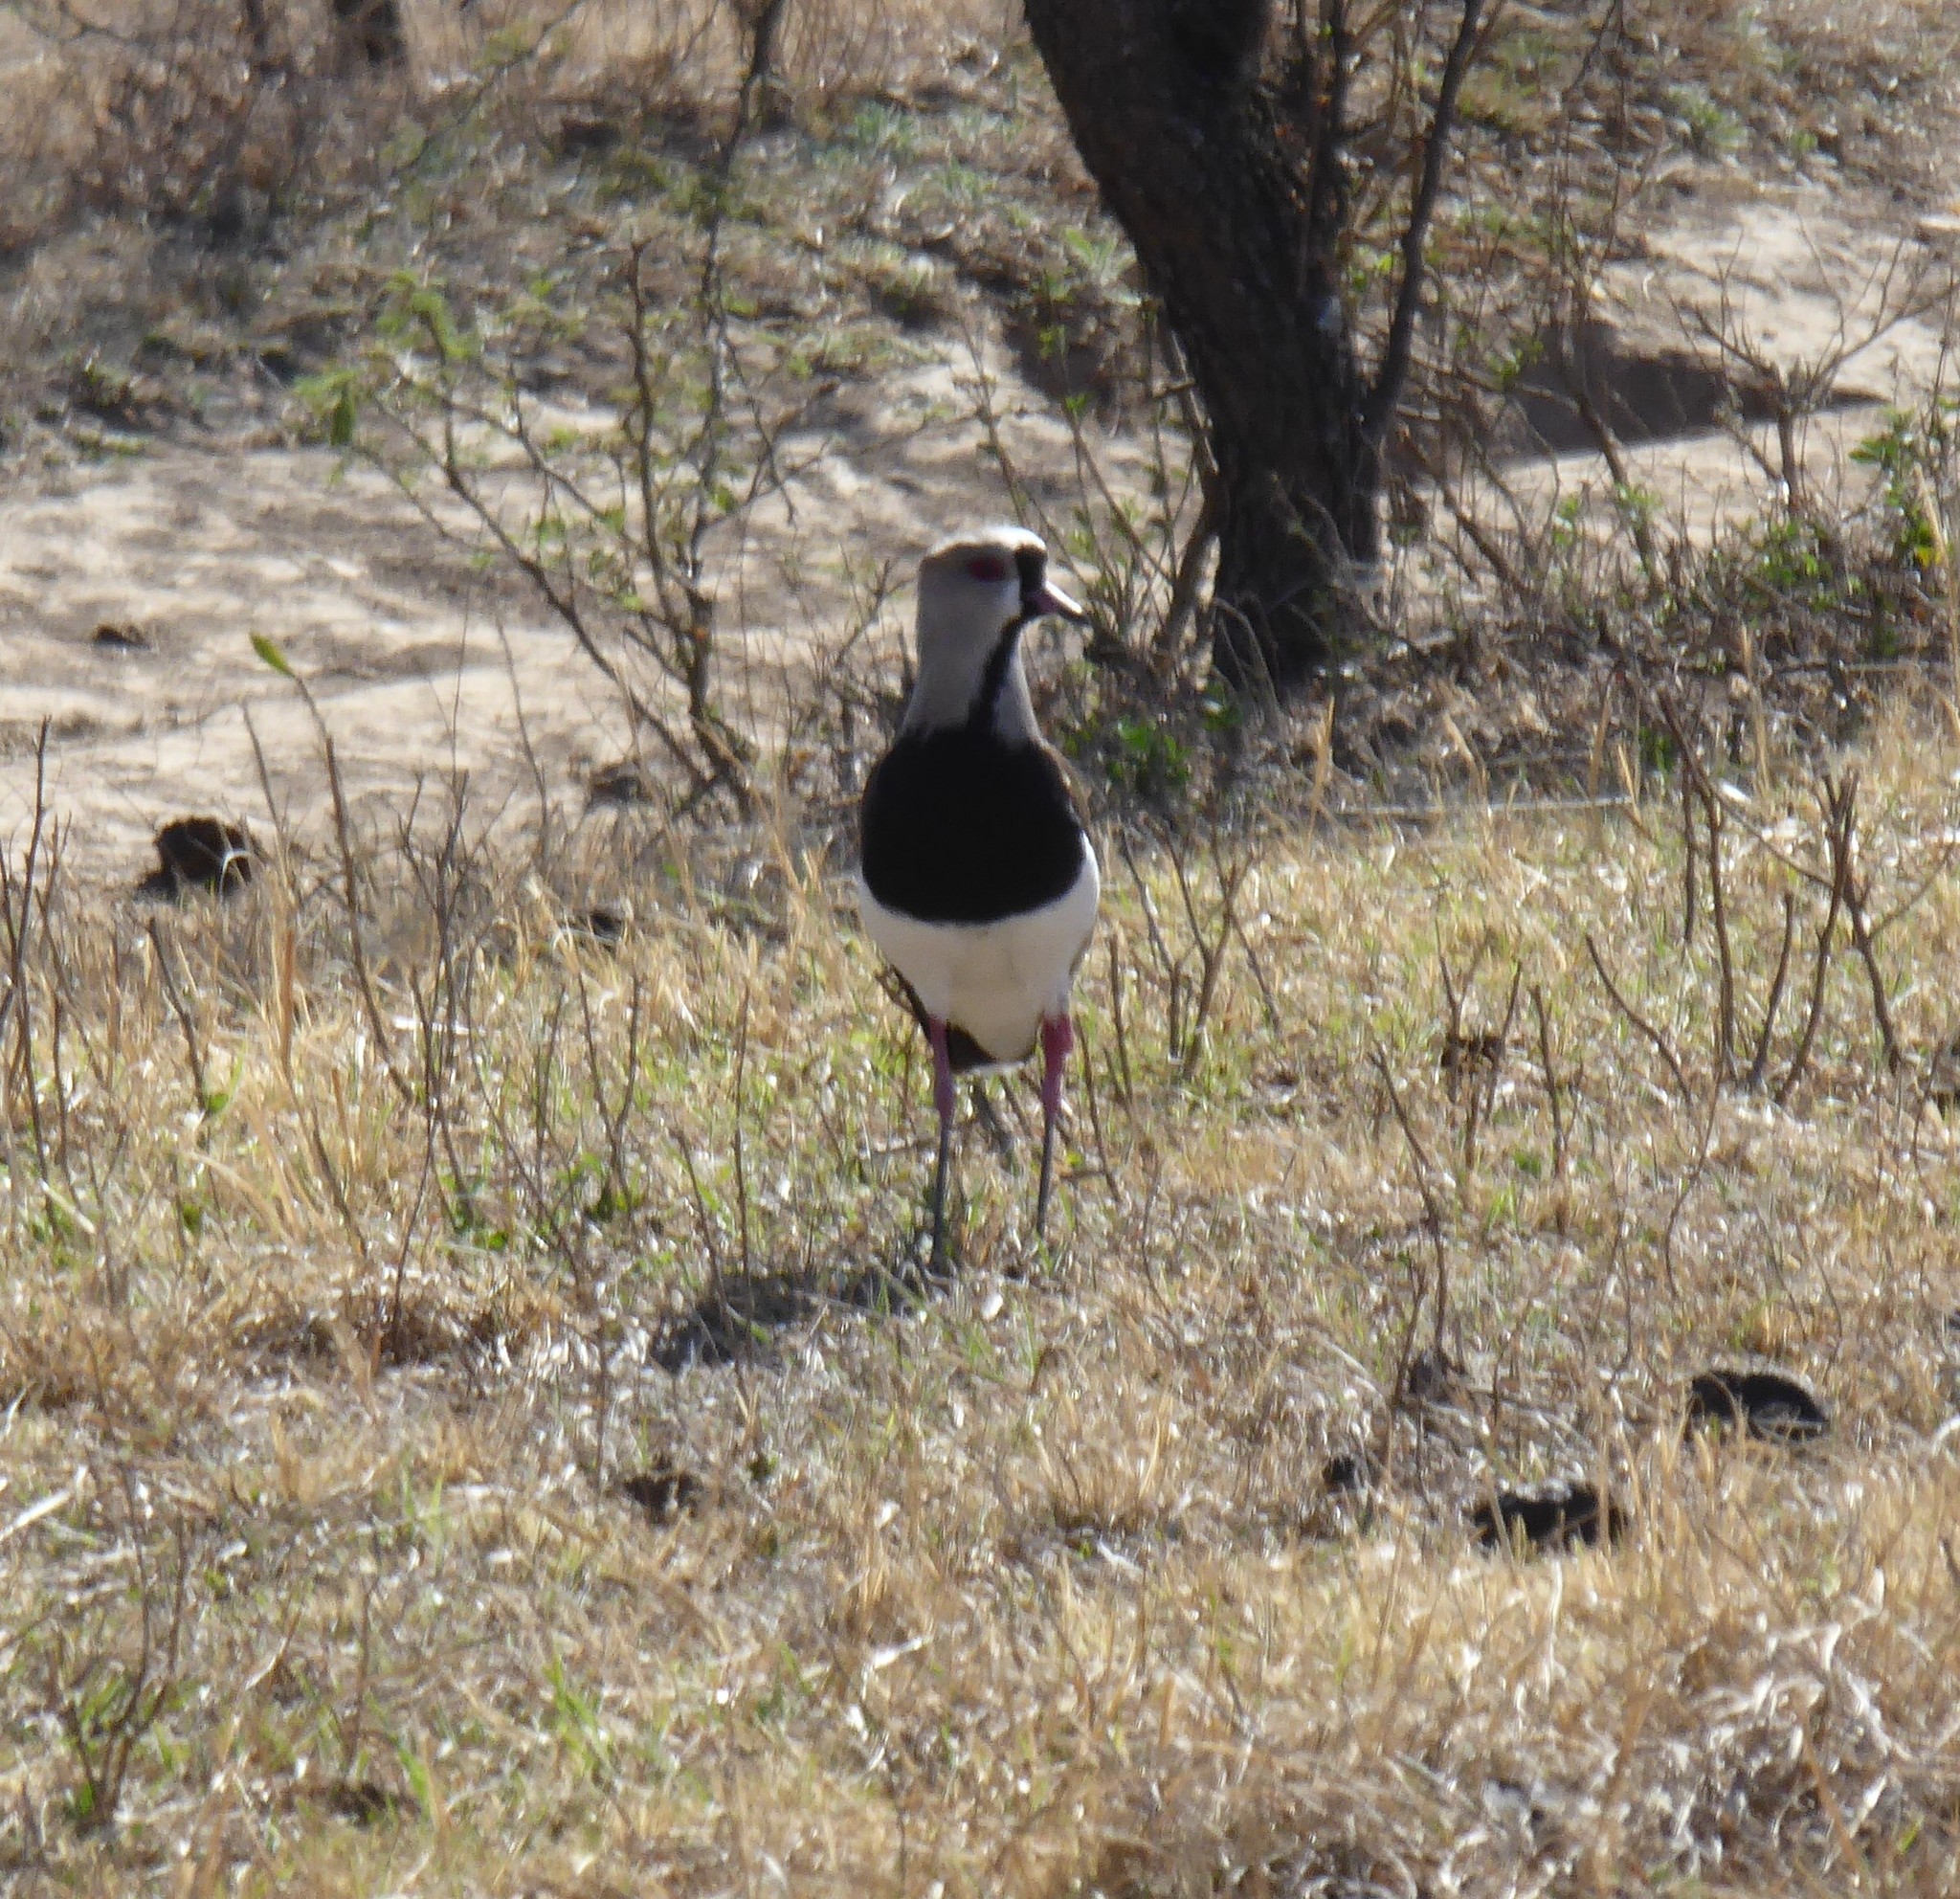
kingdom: Animalia
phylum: Chordata
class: Aves
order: Charadriiformes
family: Charadriidae
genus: Vanellus
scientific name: Vanellus chilensis
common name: Southern lapwing
